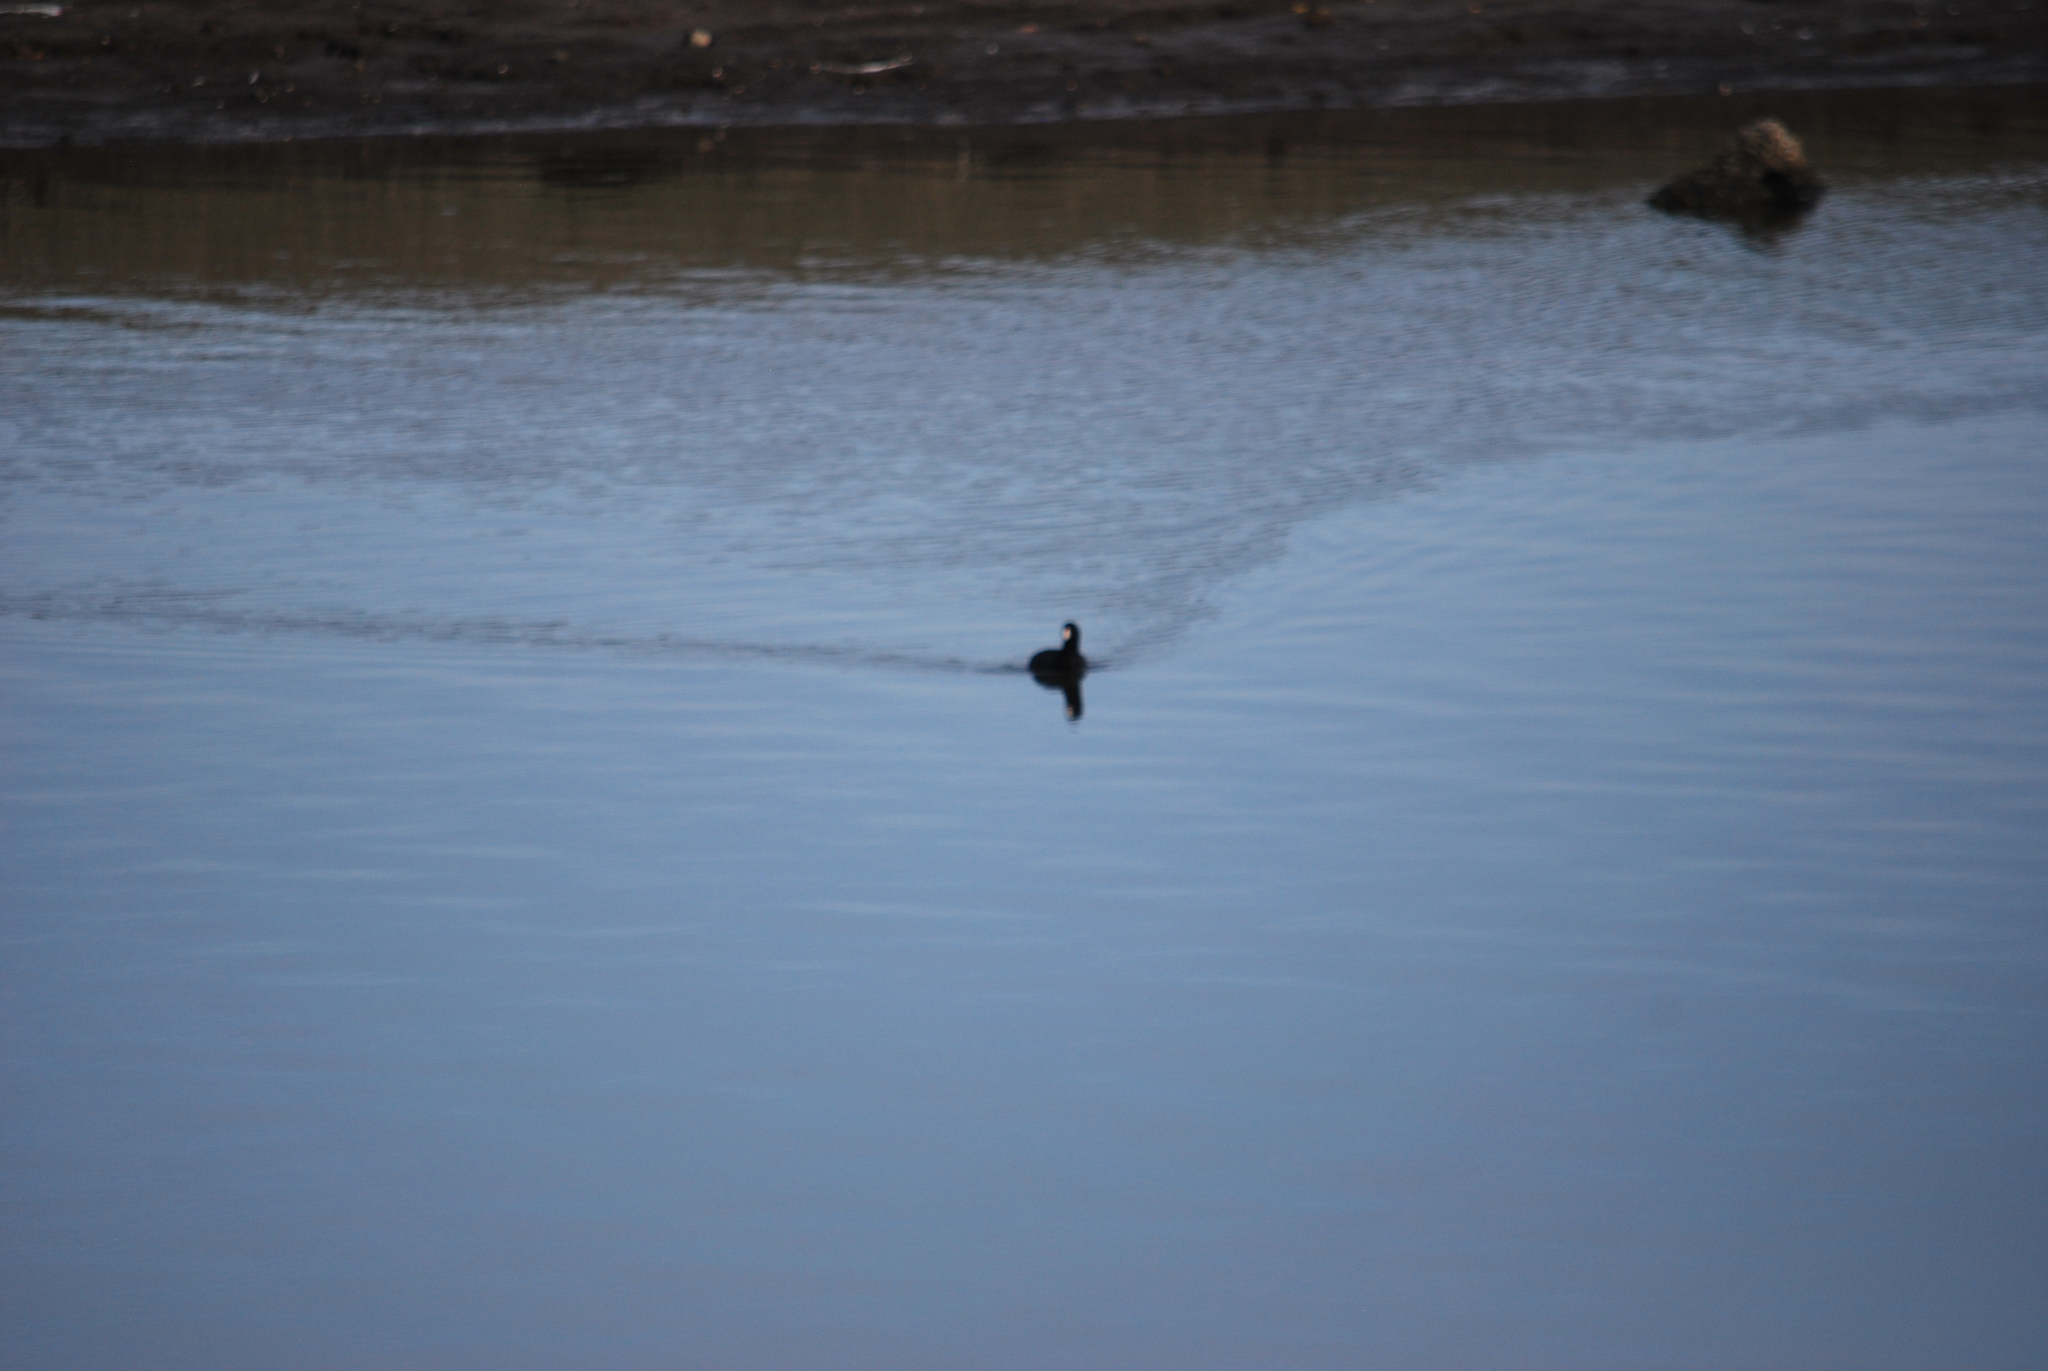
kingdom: Animalia
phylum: Chordata
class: Aves
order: Gruiformes
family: Rallidae
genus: Fulica
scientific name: Fulica americana
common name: American coot
